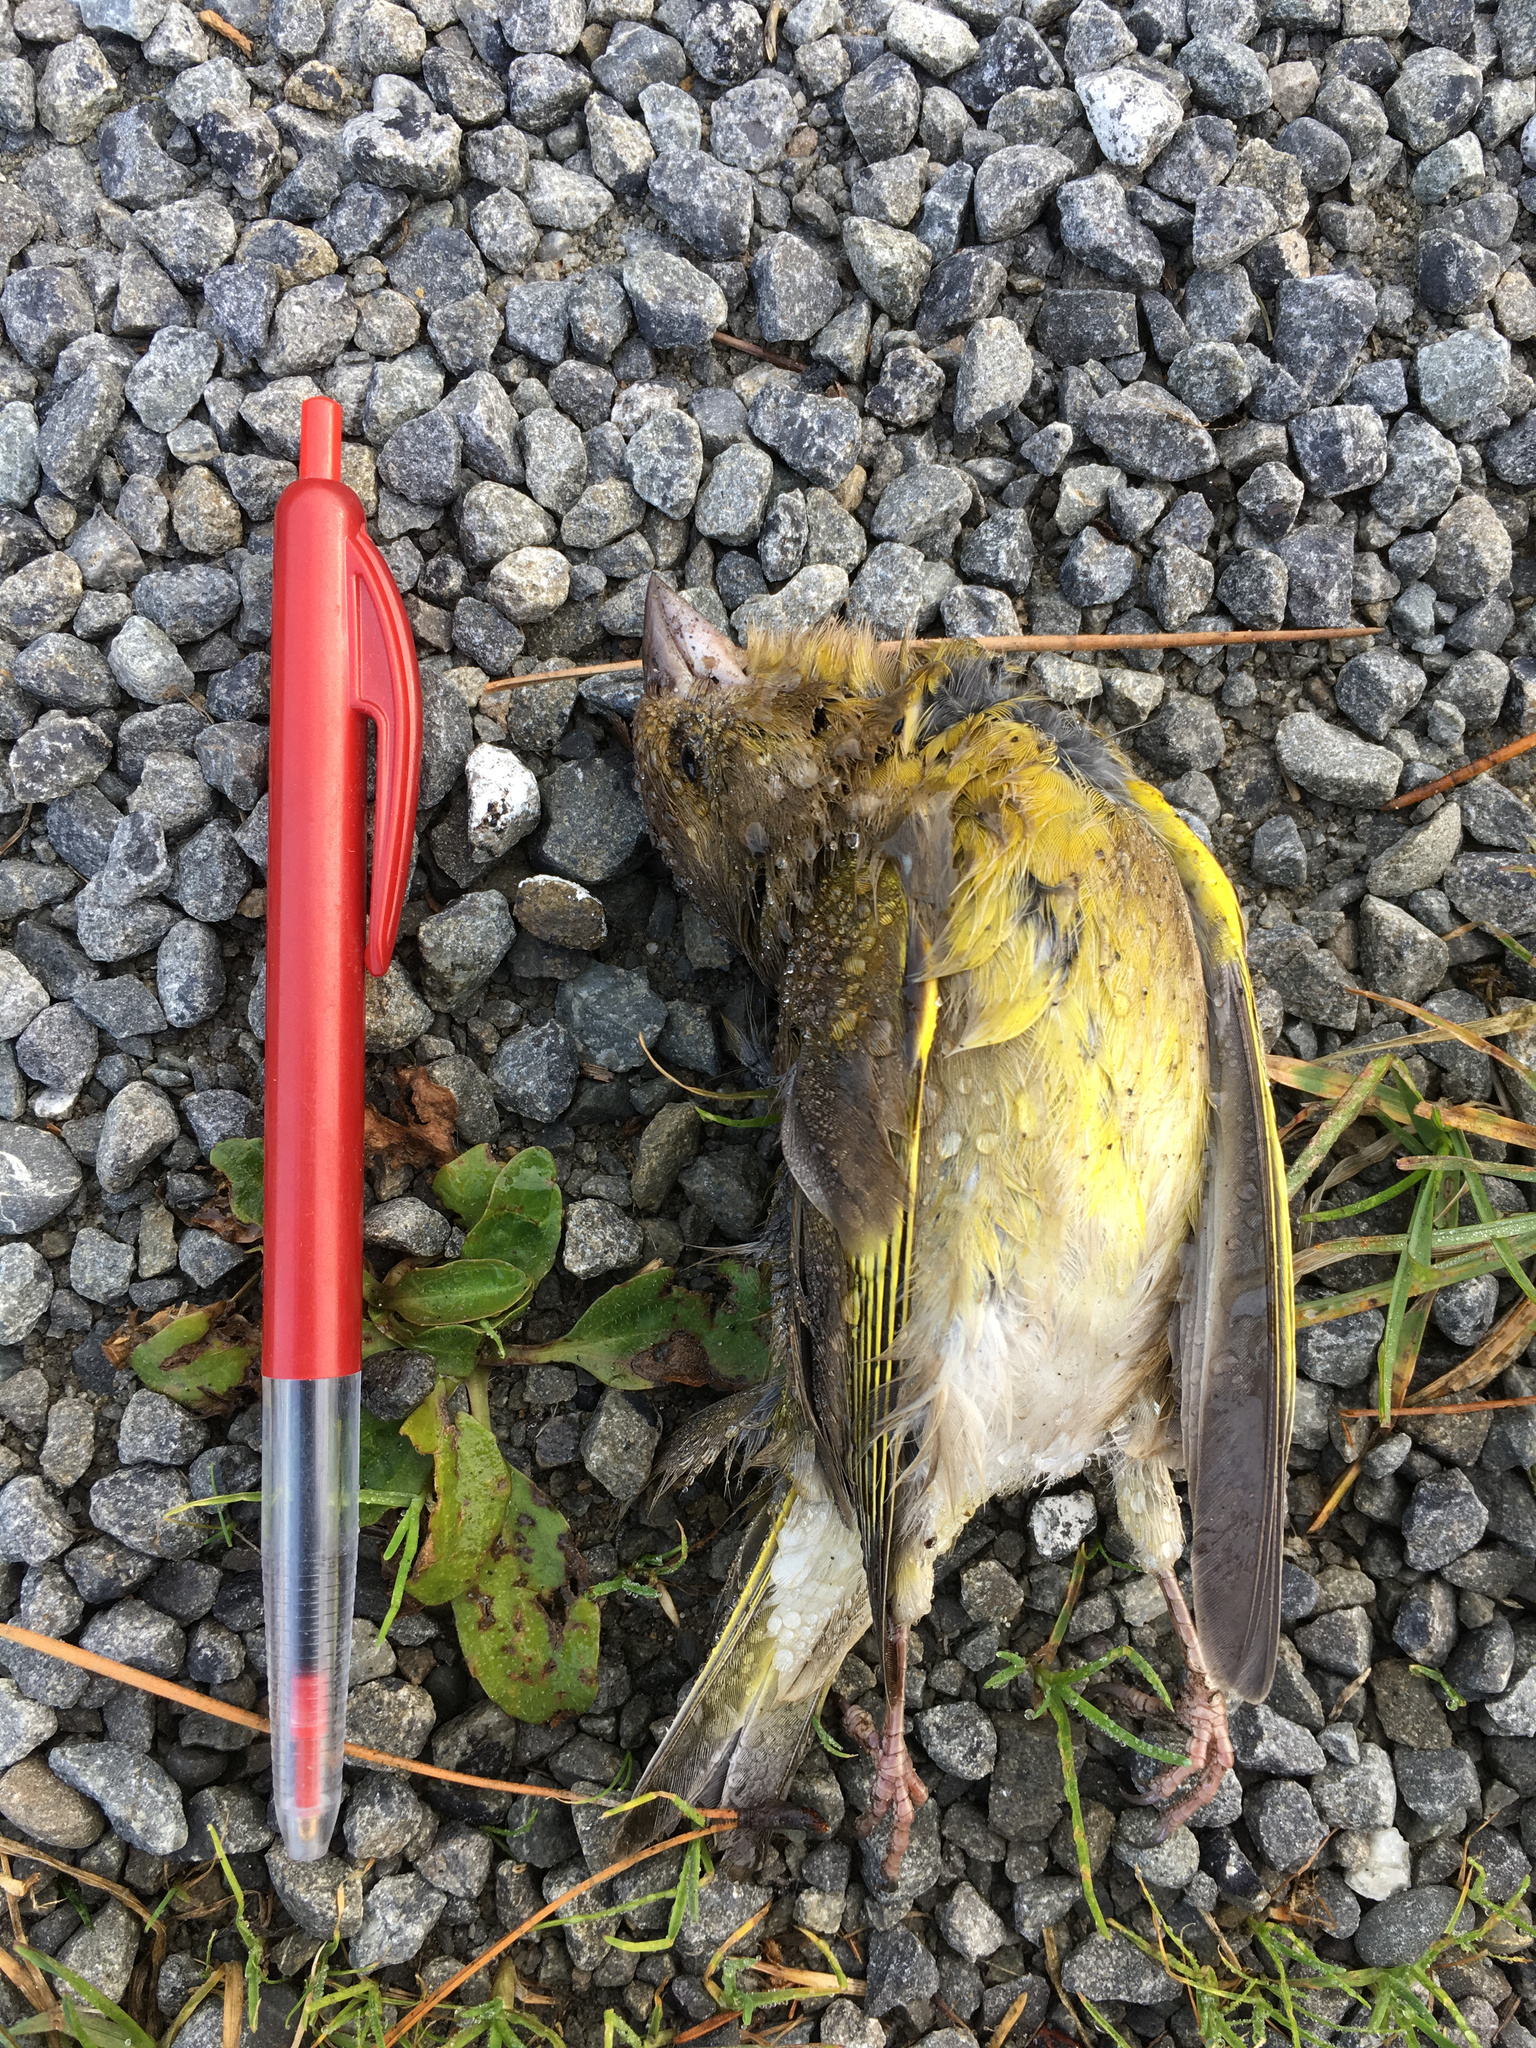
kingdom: Plantae
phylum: Tracheophyta
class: Liliopsida
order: Poales
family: Poaceae
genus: Chloris
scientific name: Chloris chloris
